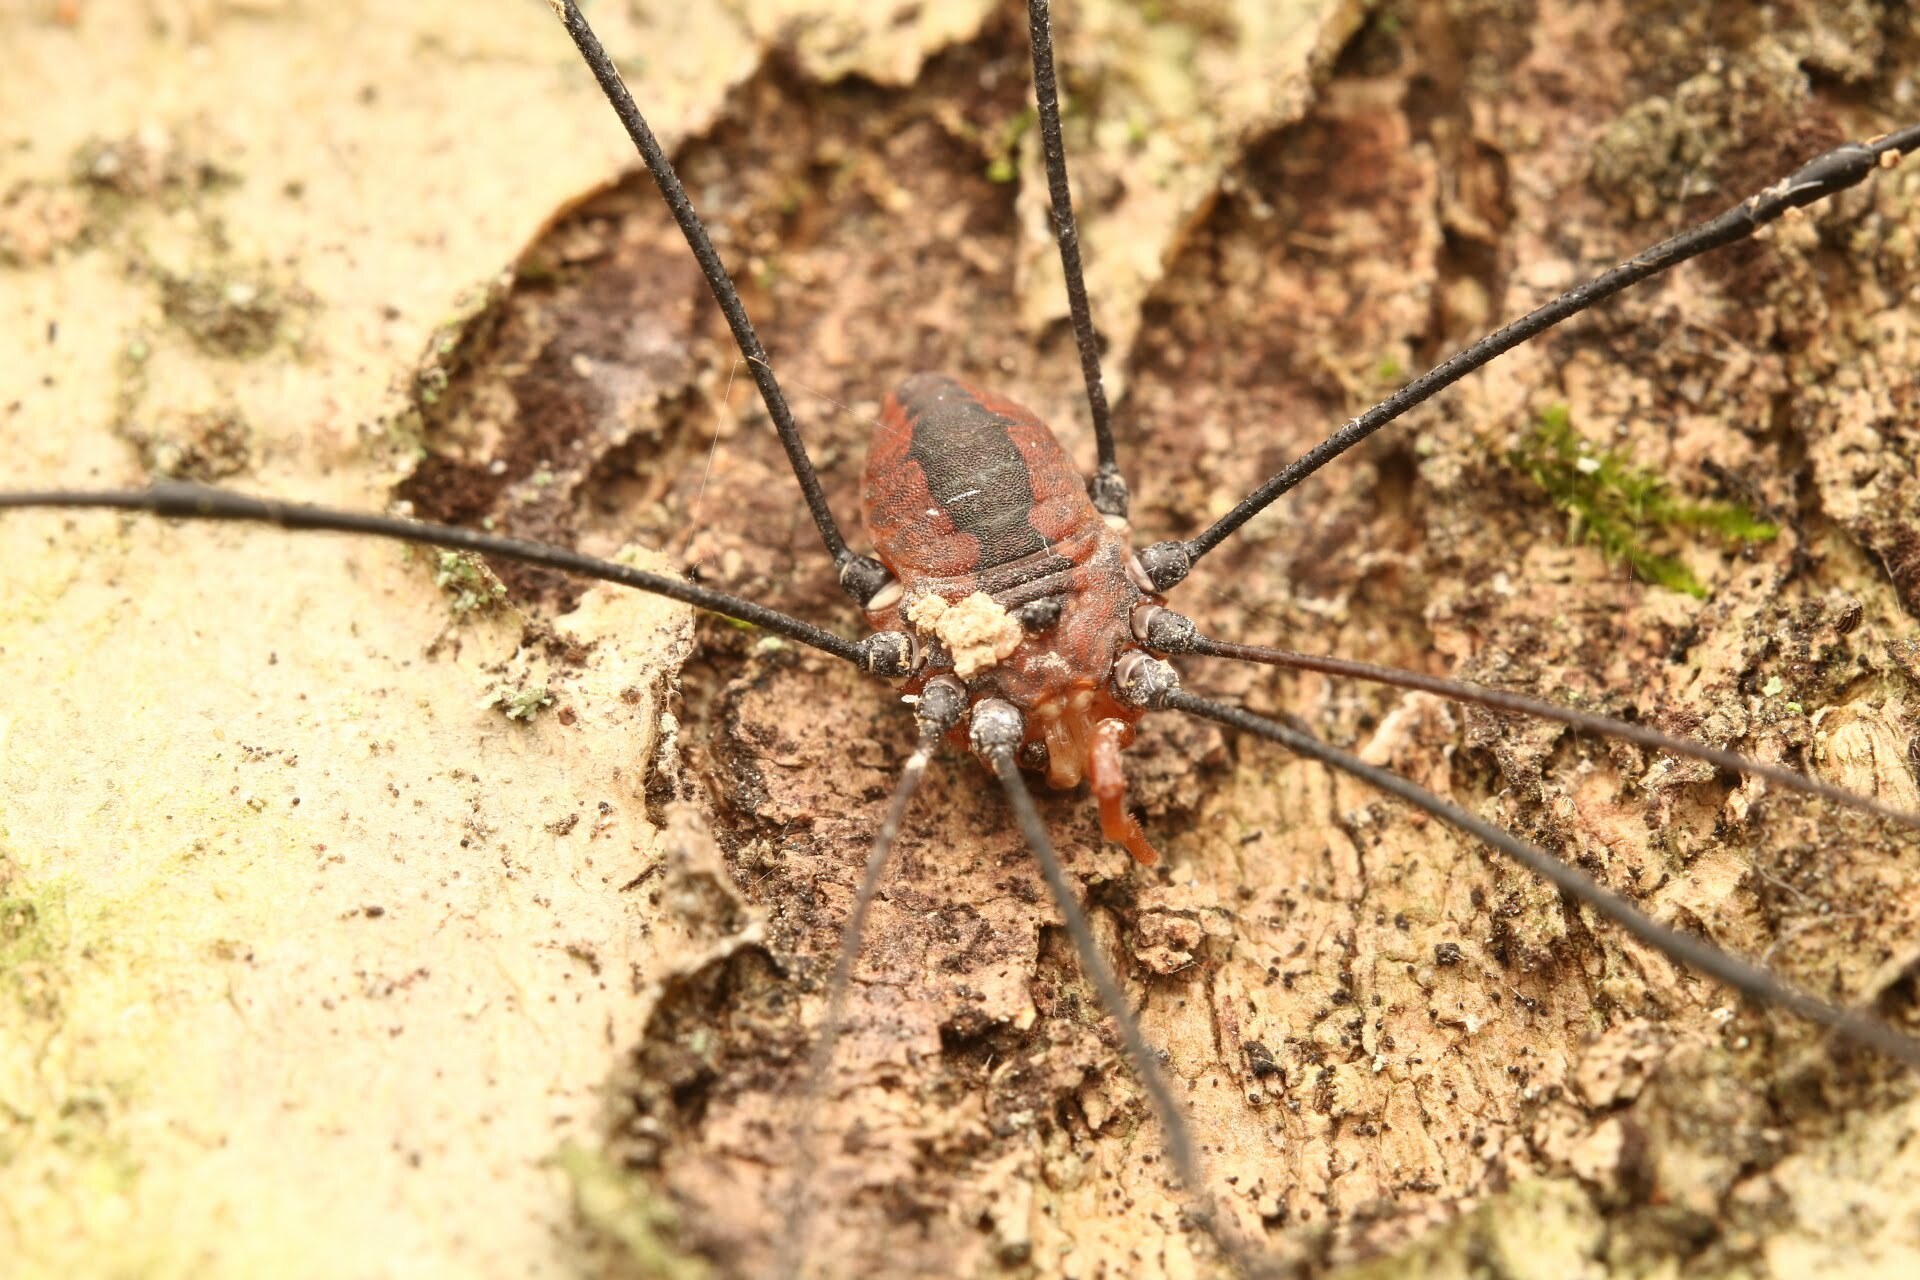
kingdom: Animalia
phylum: Arthropoda
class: Arachnida
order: Opiliones
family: Sclerosomatidae
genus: Leiobunum
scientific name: Leiobunum vittatum
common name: Eastern harvestman
